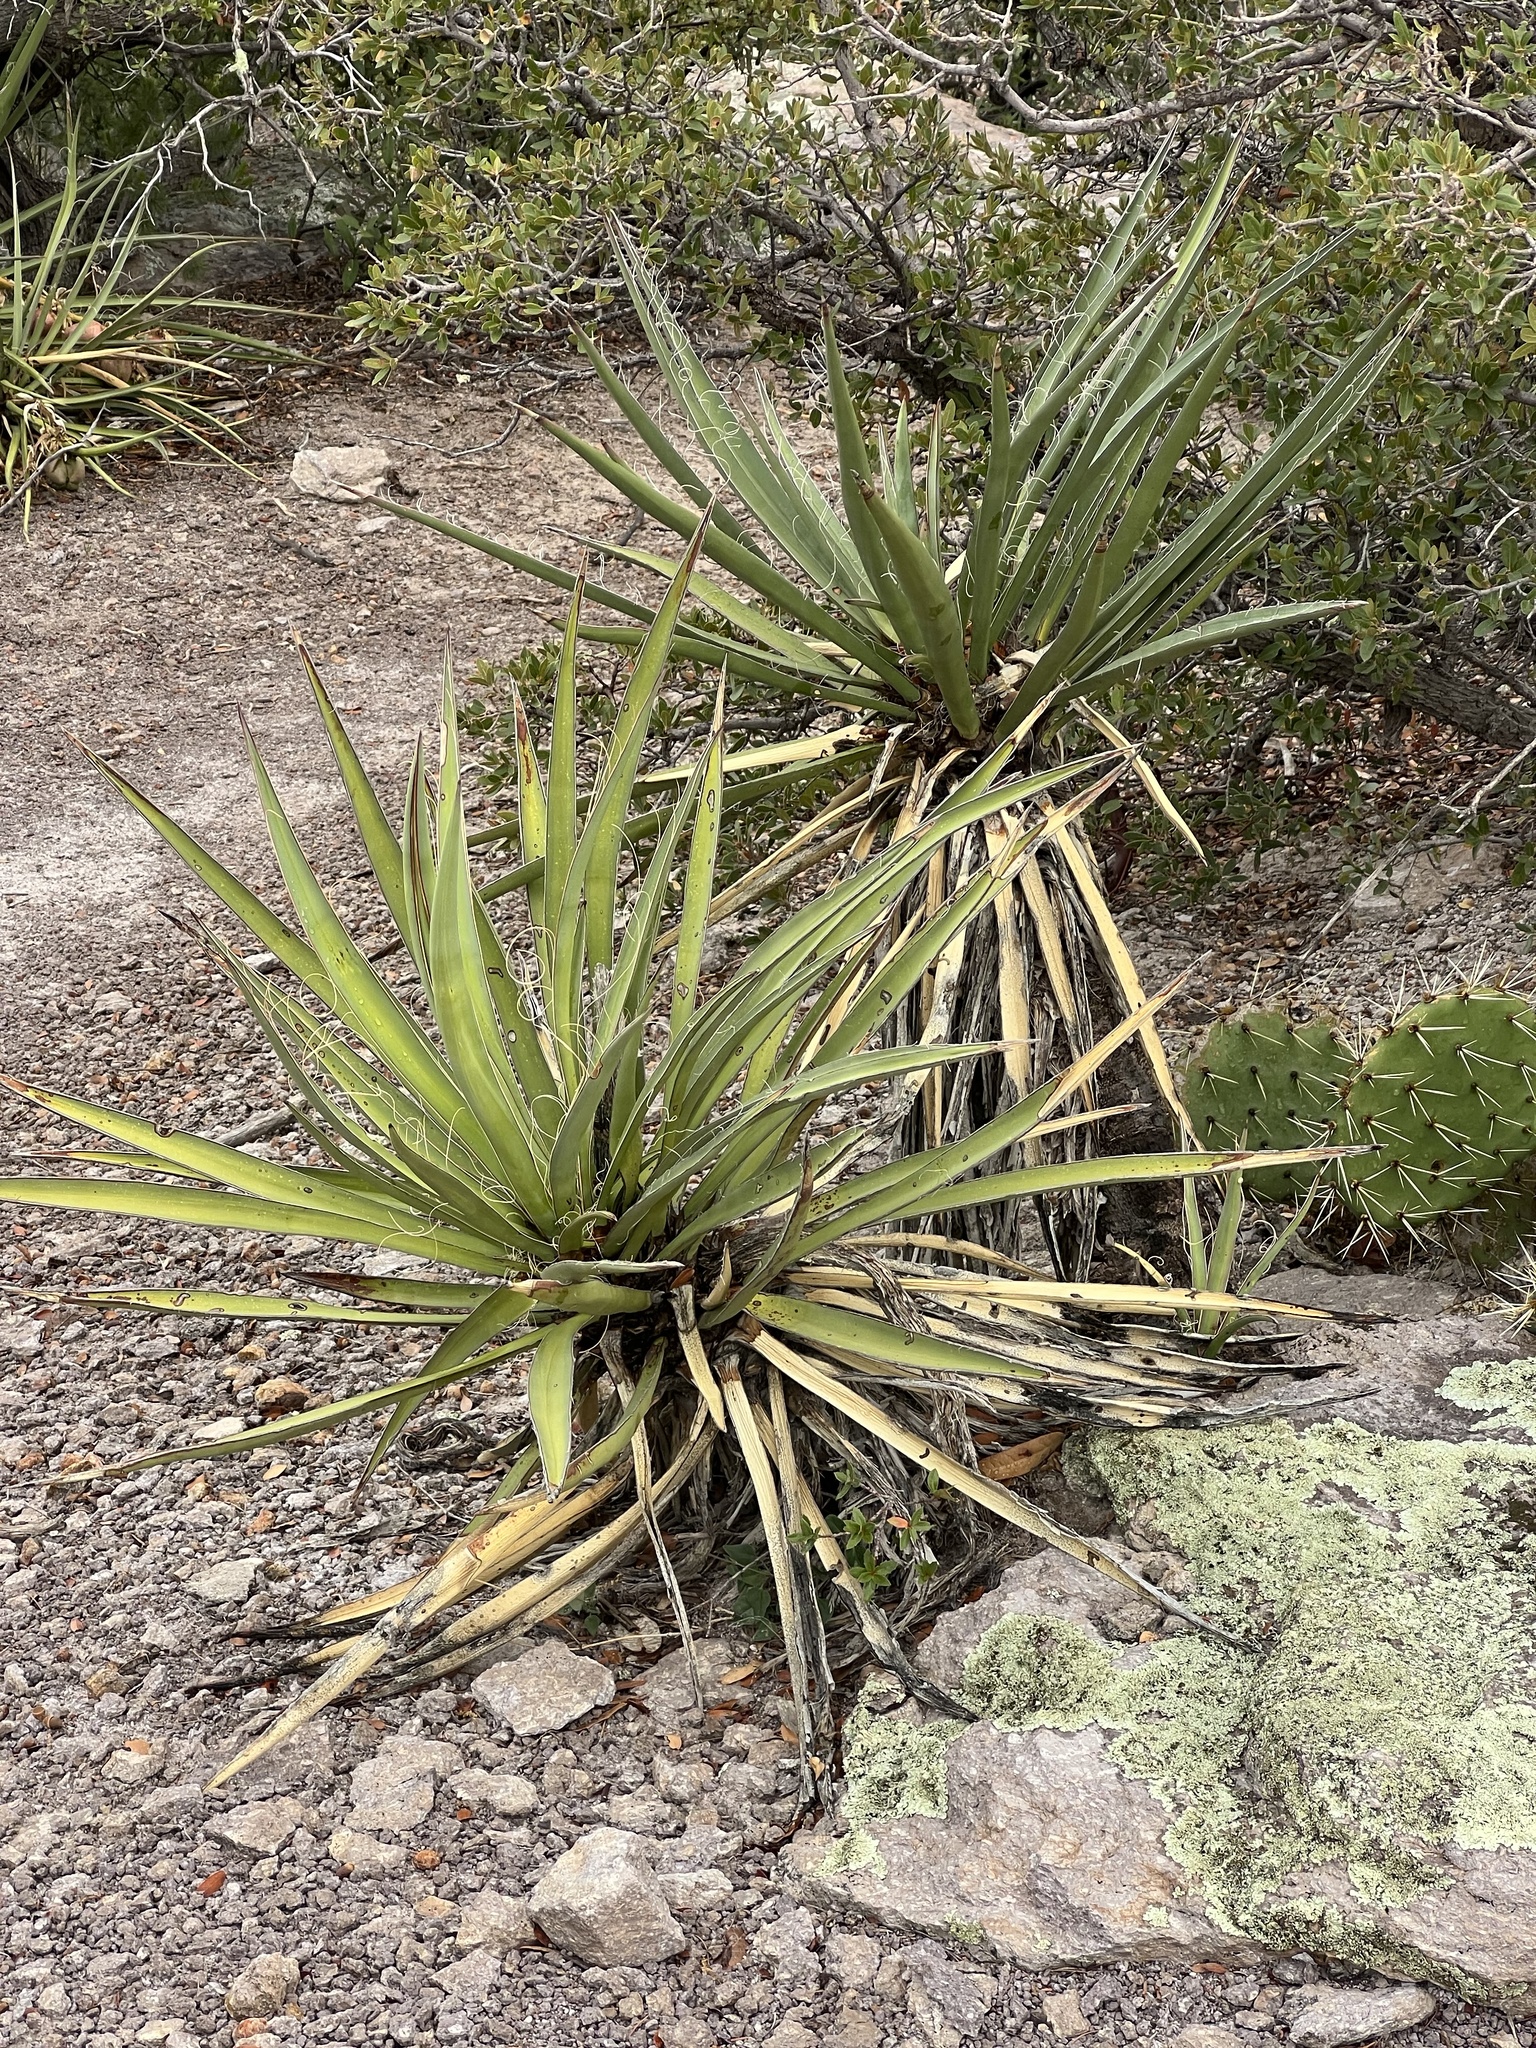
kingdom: Plantae
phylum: Tracheophyta
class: Liliopsida
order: Asparagales
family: Asparagaceae
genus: Yucca
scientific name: Yucca baccata
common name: Banana yucca
